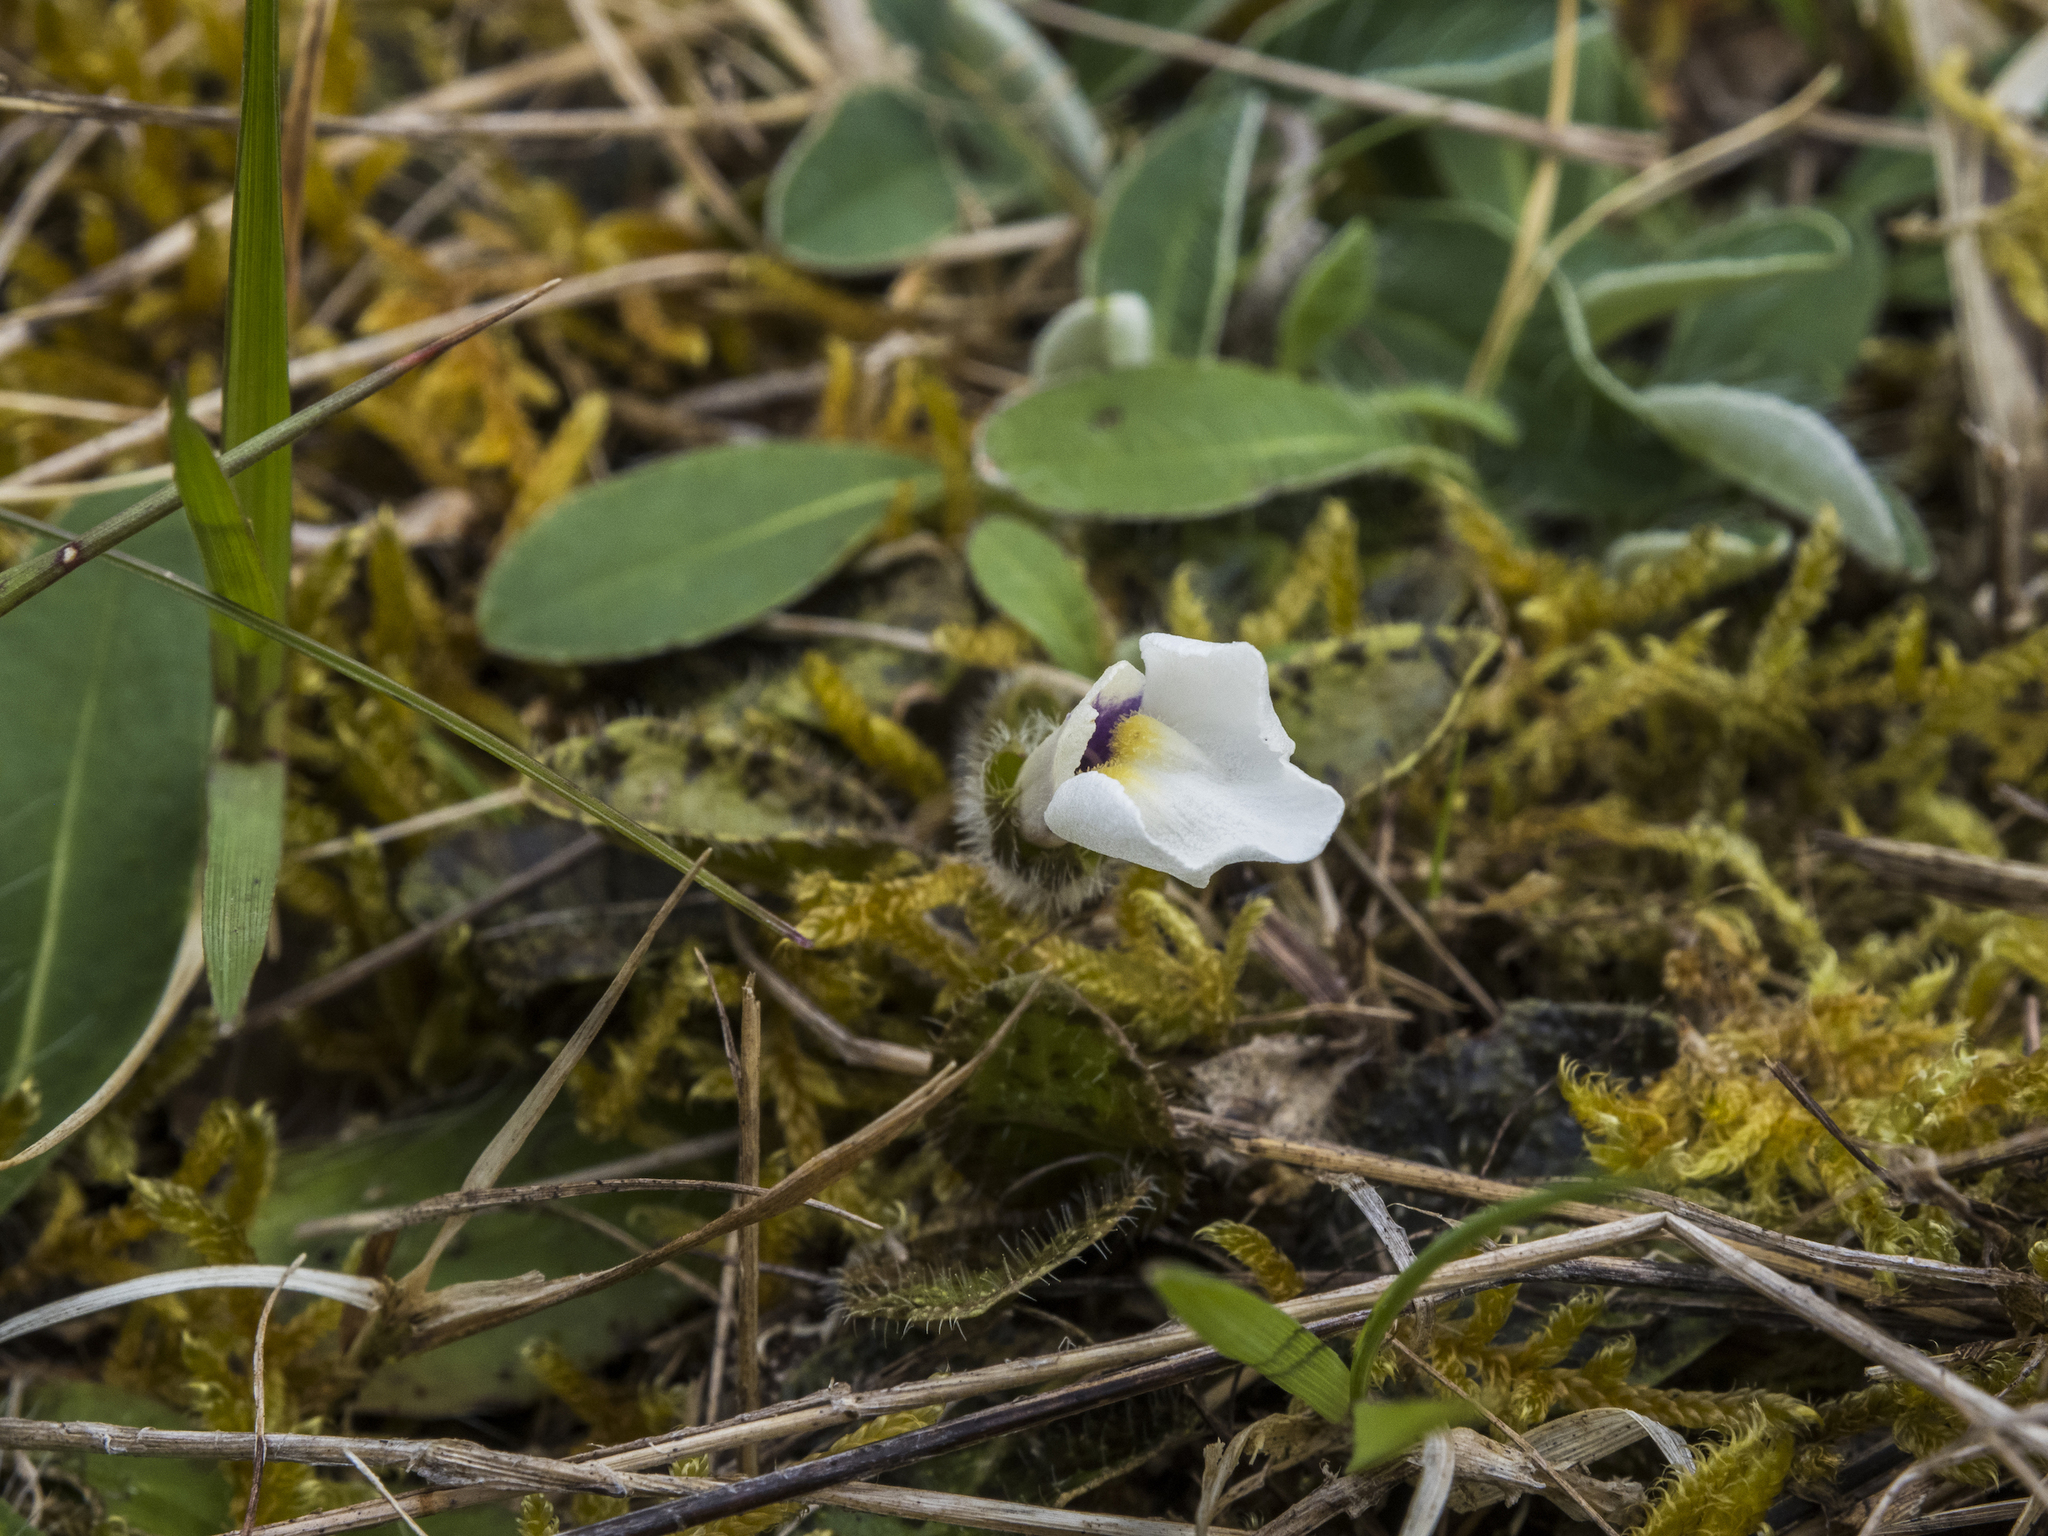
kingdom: Plantae
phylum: Tracheophyta
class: Magnoliopsida
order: Lamiales
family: Mazaceae
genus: Mazus
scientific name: Mazus radicans
